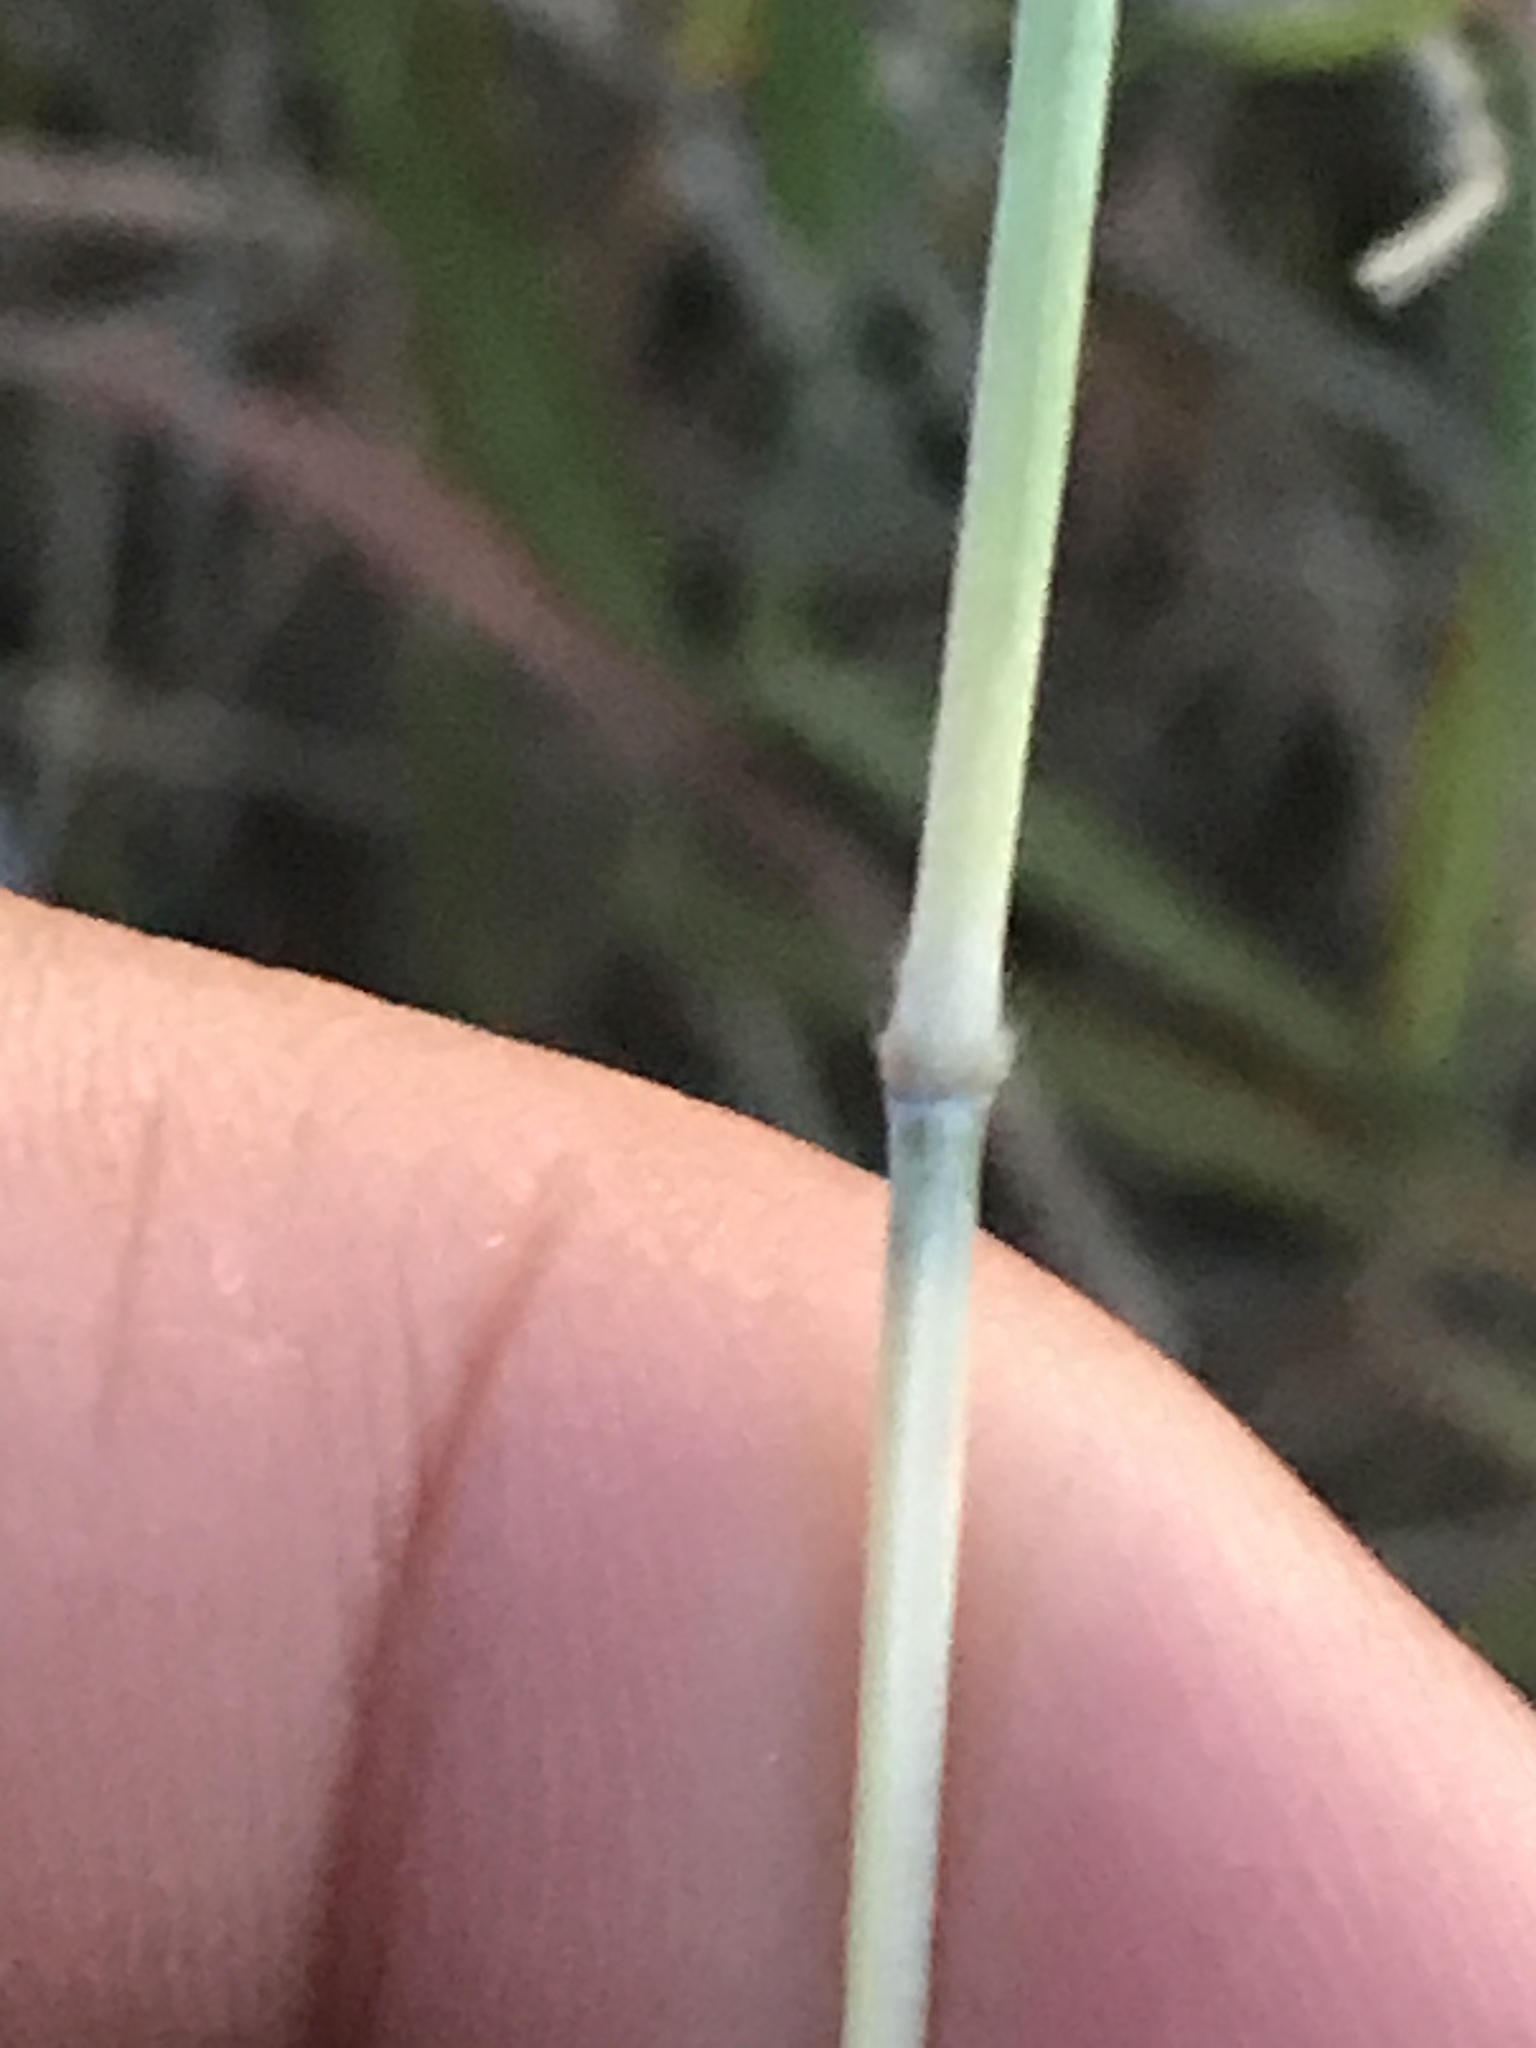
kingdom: Plantae
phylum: Tracheophyta
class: Liliopsida
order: Poales
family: Poaceae
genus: Bothriochloa
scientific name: Bothriochloa barbinodis
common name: Cane bluestem
